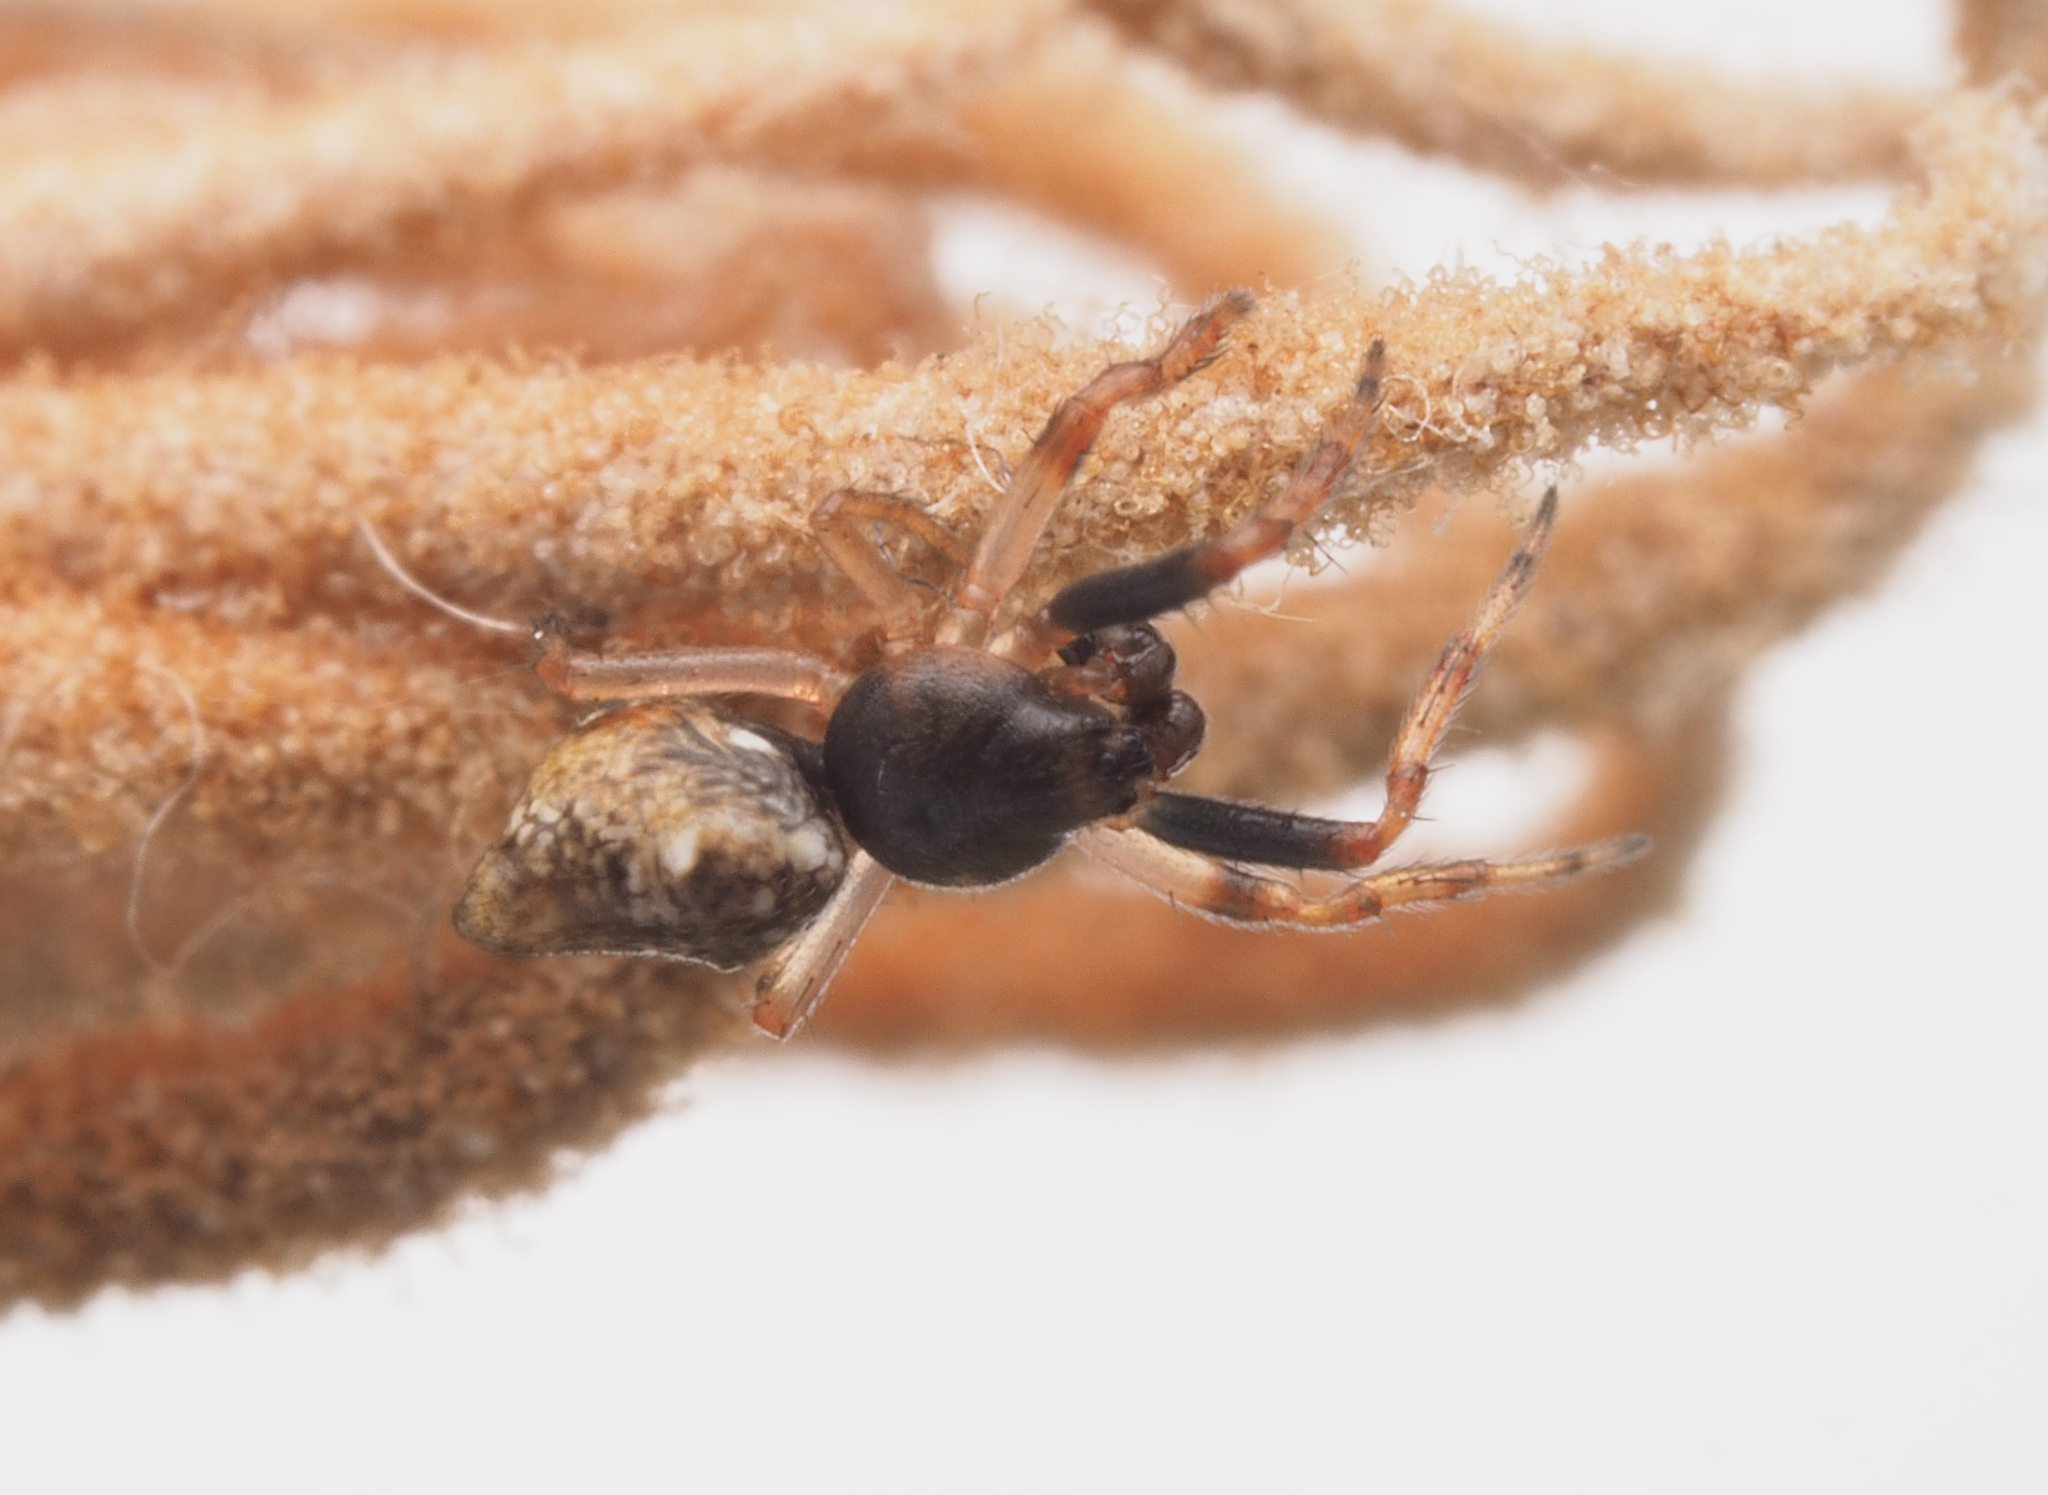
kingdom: Animalia
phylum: Arthropoda
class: Arachnida
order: Araneae
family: Araneidae
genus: Cyclosa
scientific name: Cyclosa
